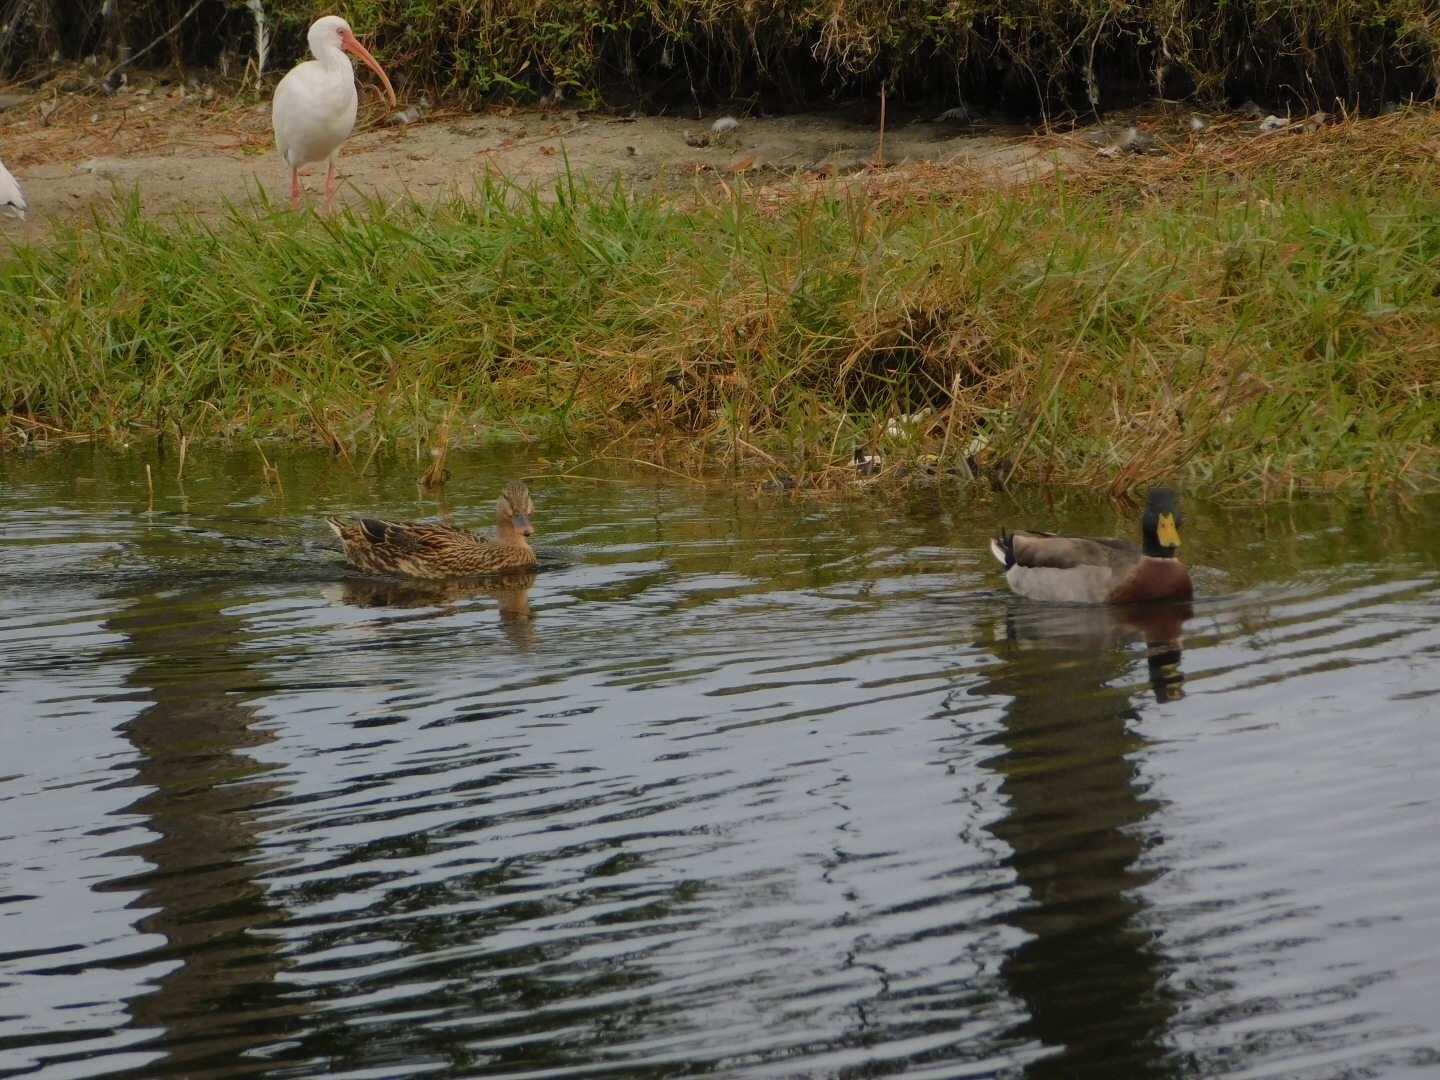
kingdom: Animalia
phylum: Chordata
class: Aves
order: Anseriformes
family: Anatidae
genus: Anas
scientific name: Anas platyrhynchos
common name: Mallard
